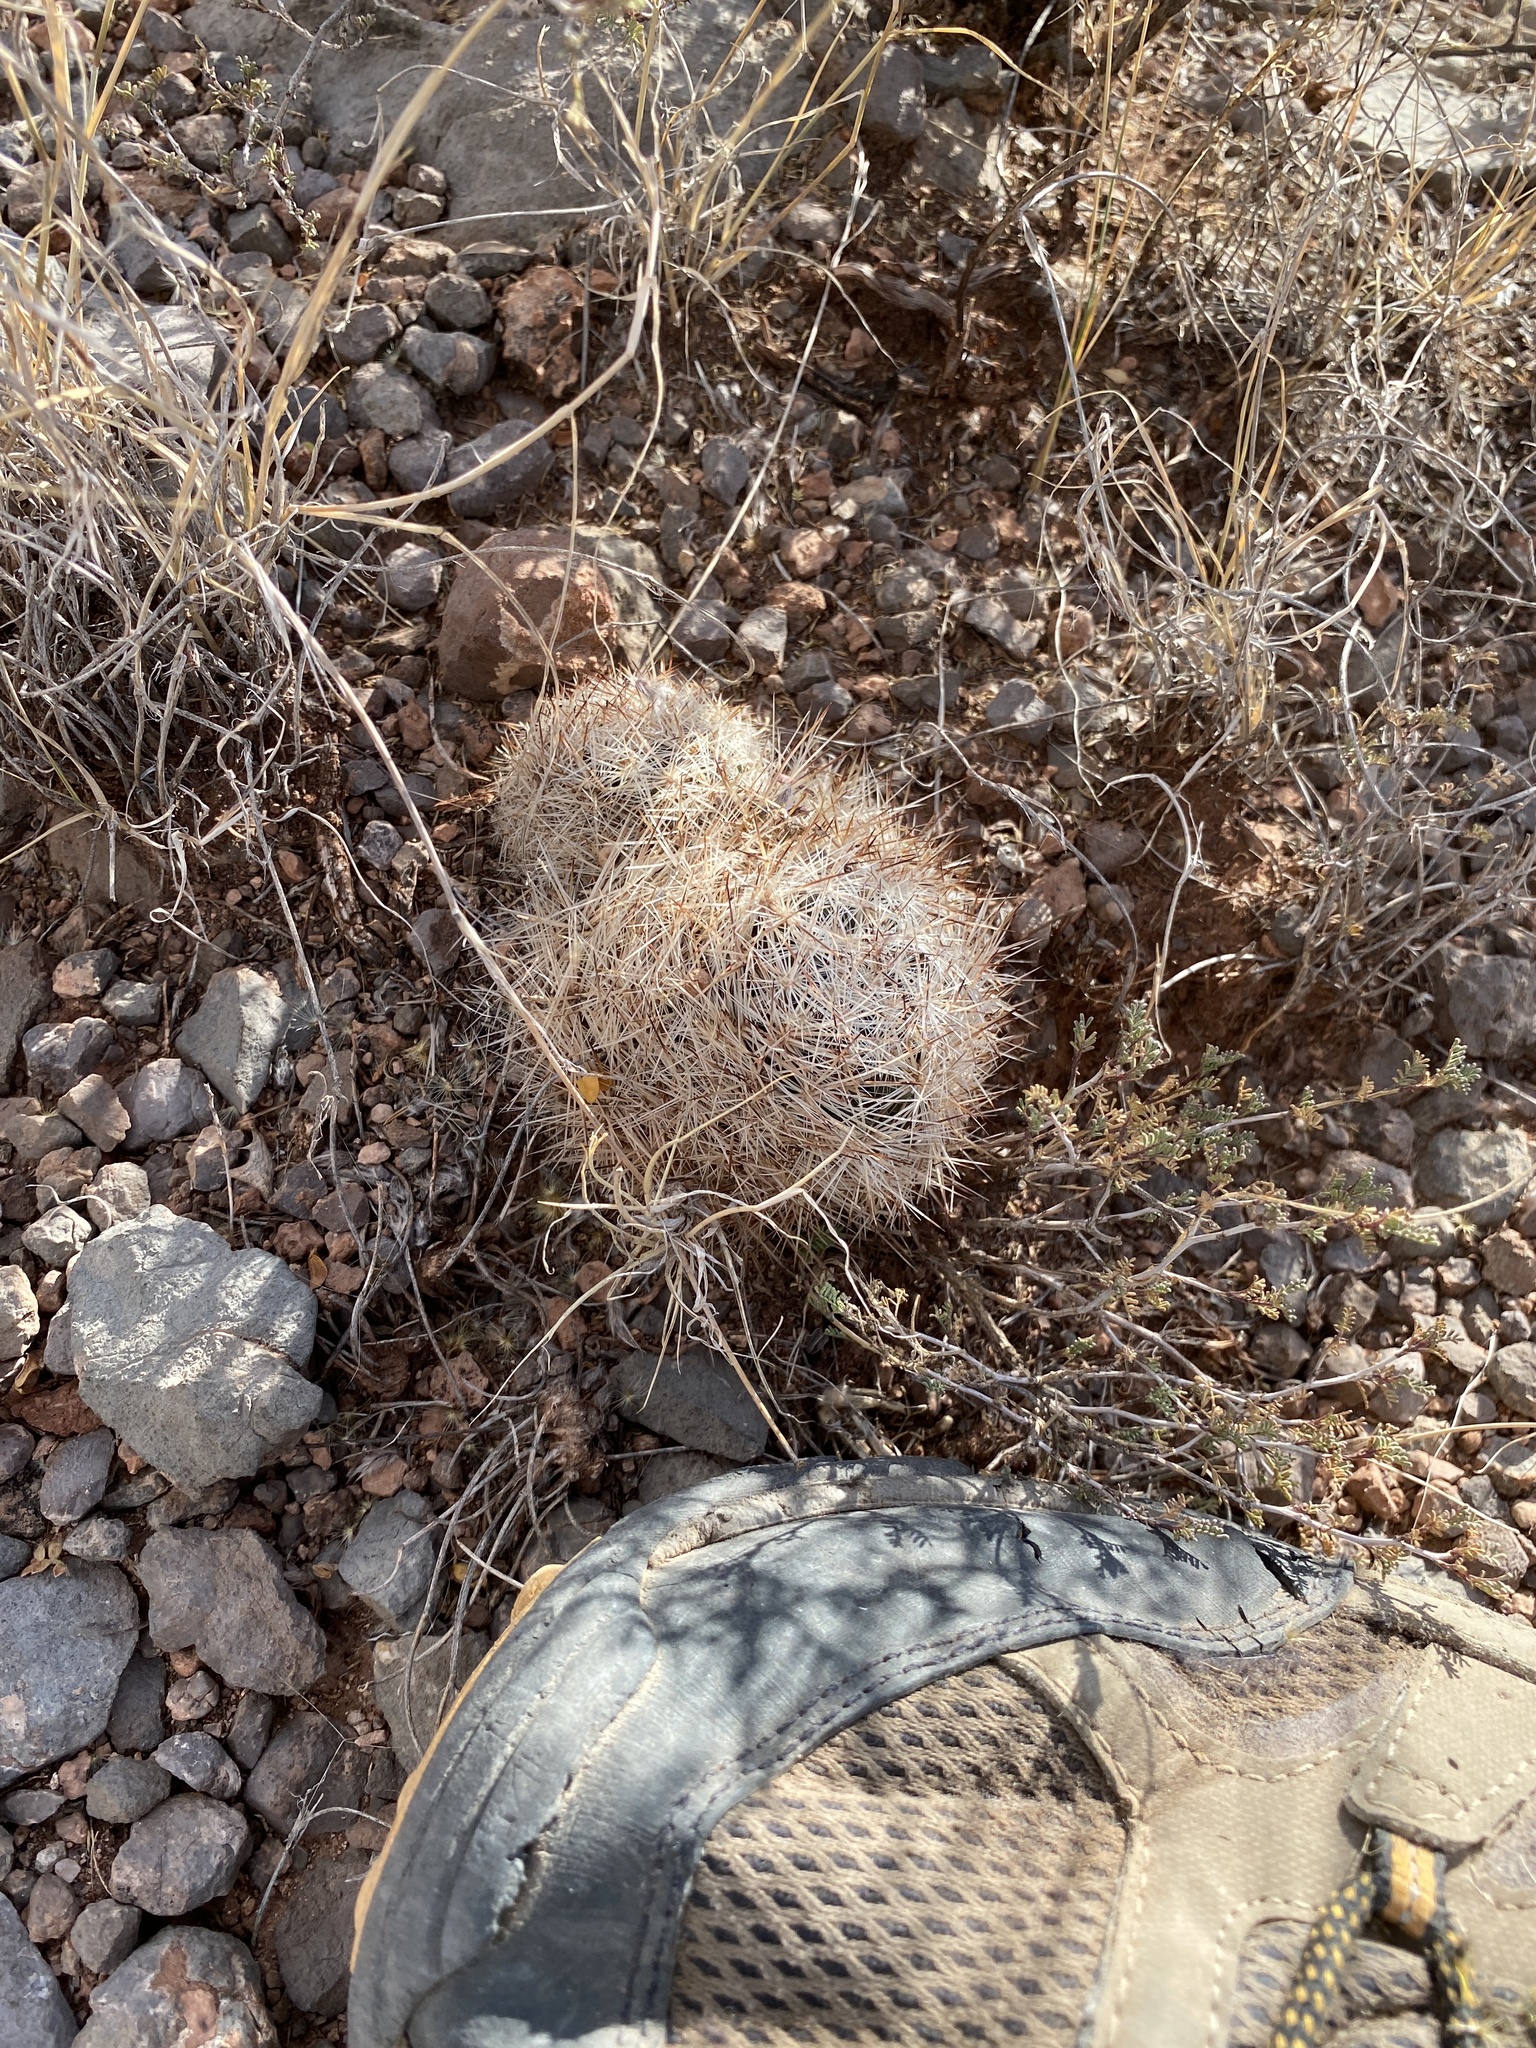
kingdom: Plantae
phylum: Tracheophyta
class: Magnoliopsida
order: Caryophyllales
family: Cactaceae
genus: Pelecyphora
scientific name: Pelecyphora vivipara
